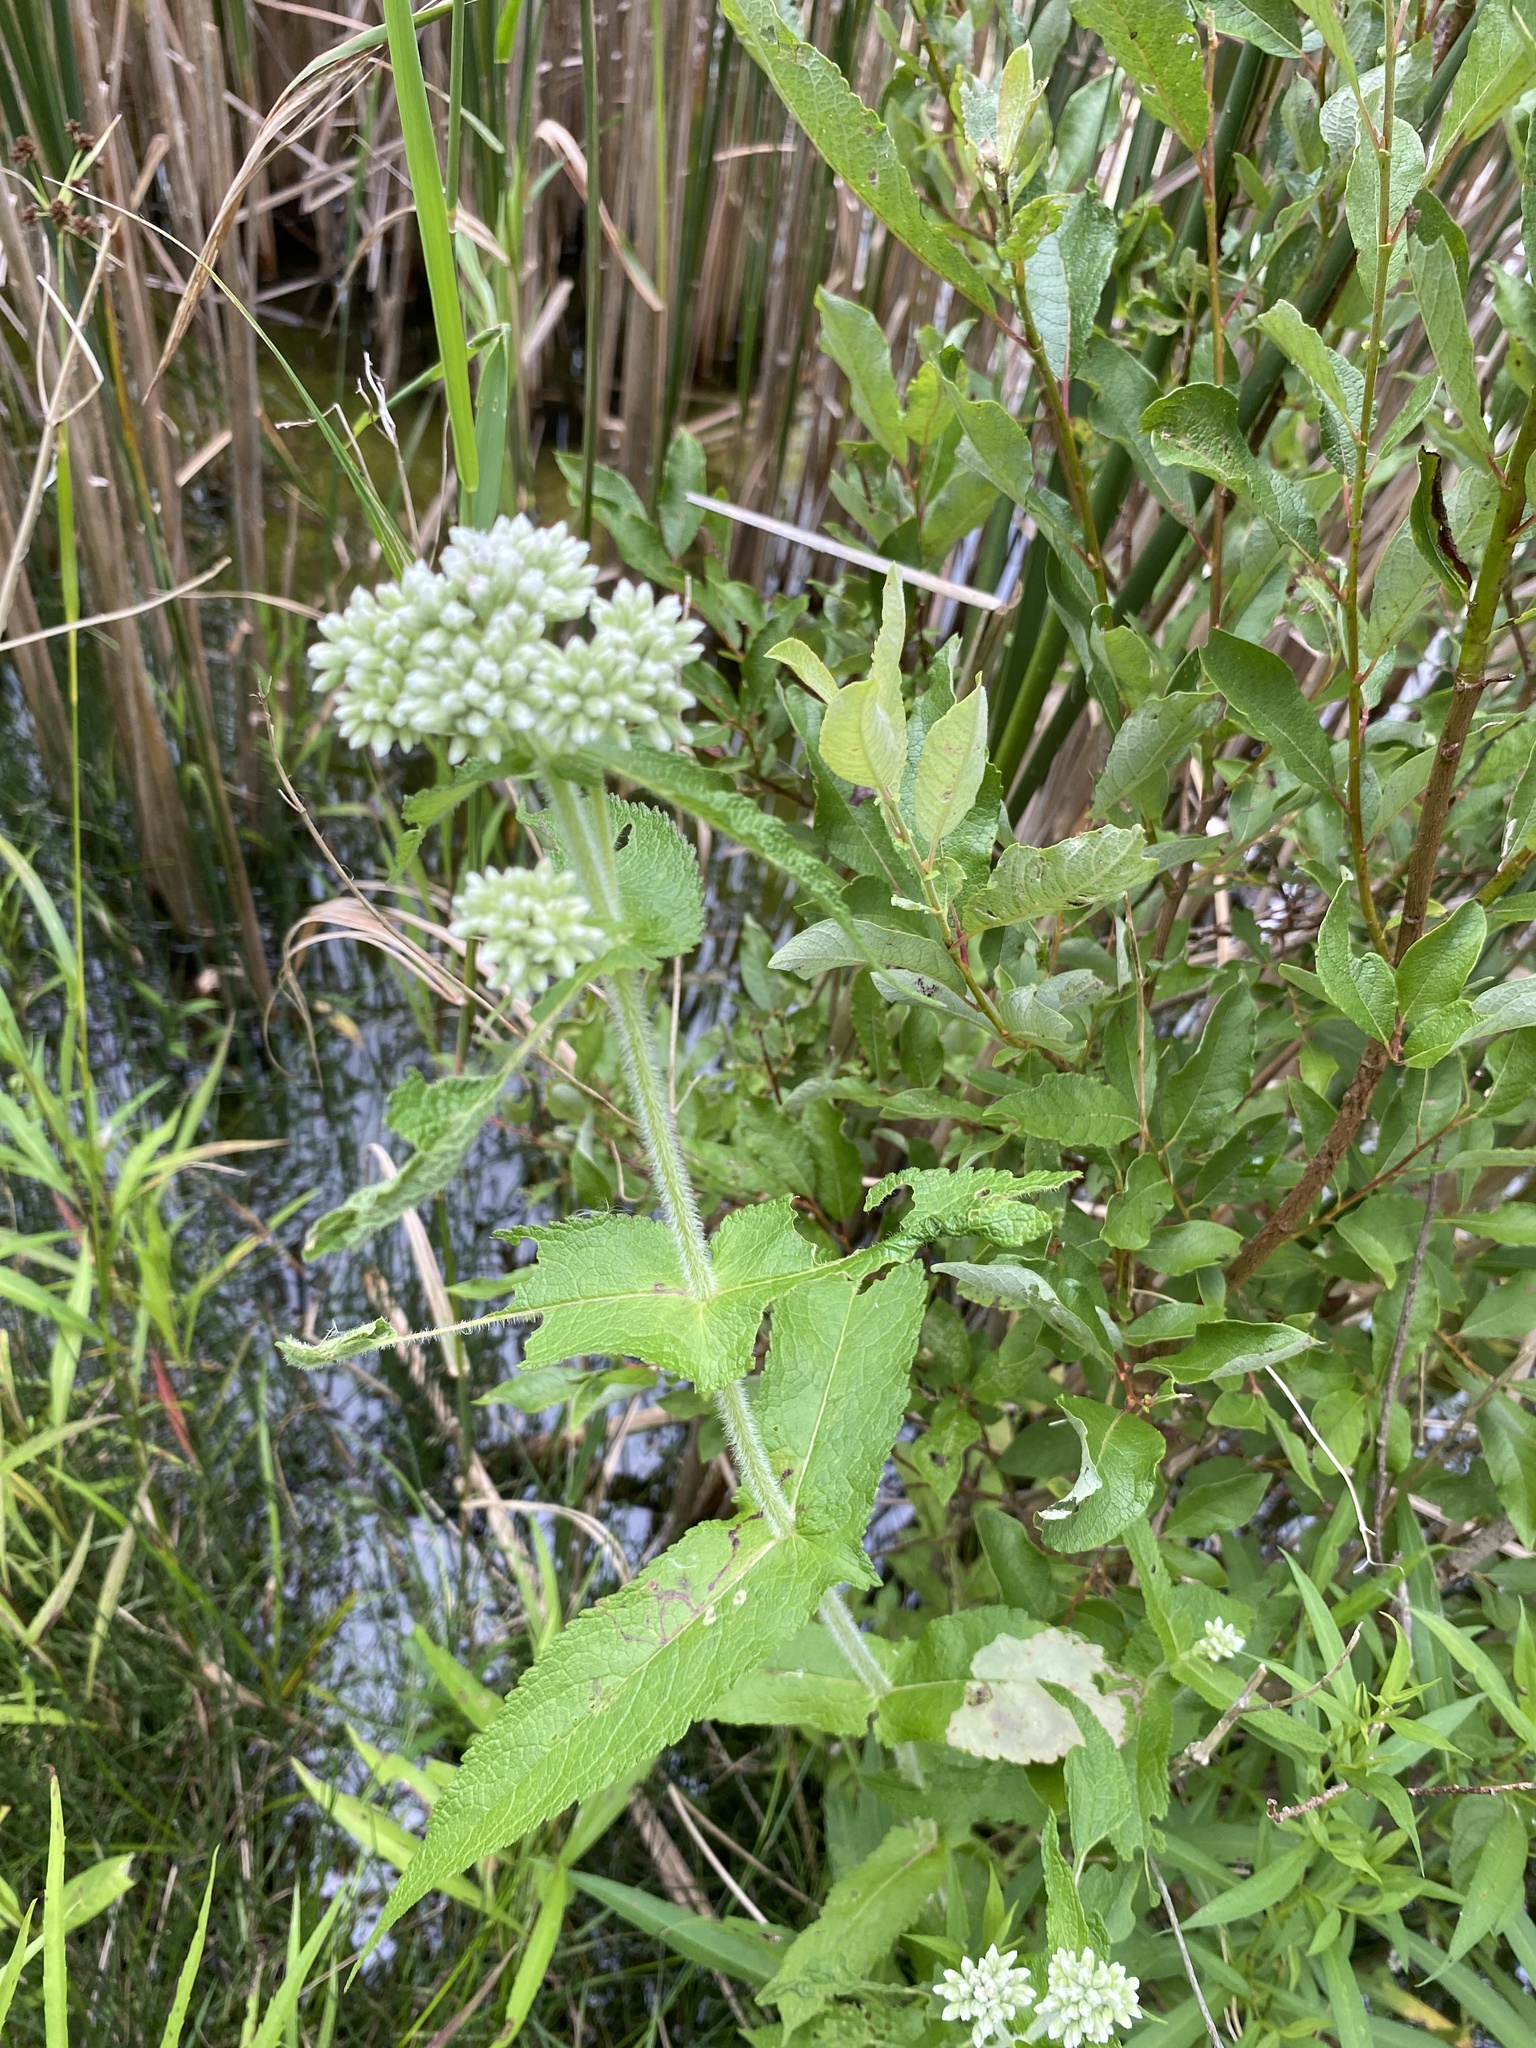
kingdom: Plantae
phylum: Tracheophyta
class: Magnoliopsida
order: Asterales
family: Asteraceae
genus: Eupatorium
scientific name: Eupatorium perfoliatum
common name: Boneset
